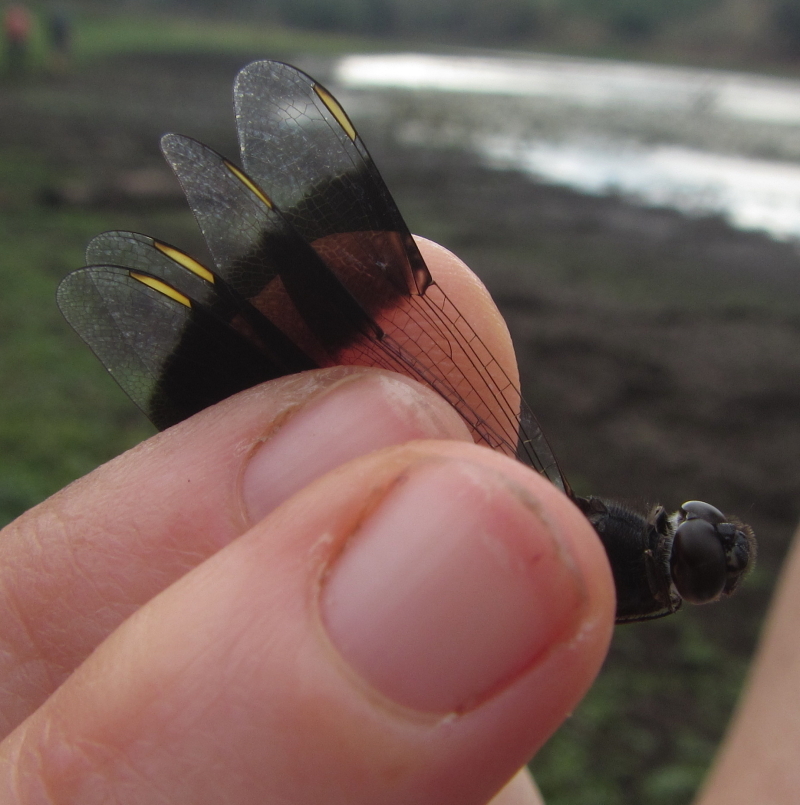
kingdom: Animalia
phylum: Arthropoda
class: Insecta
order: Odonata
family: Libellulidae
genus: Brachythemis
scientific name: Brachythemis leucosticta
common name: Banded groundling
